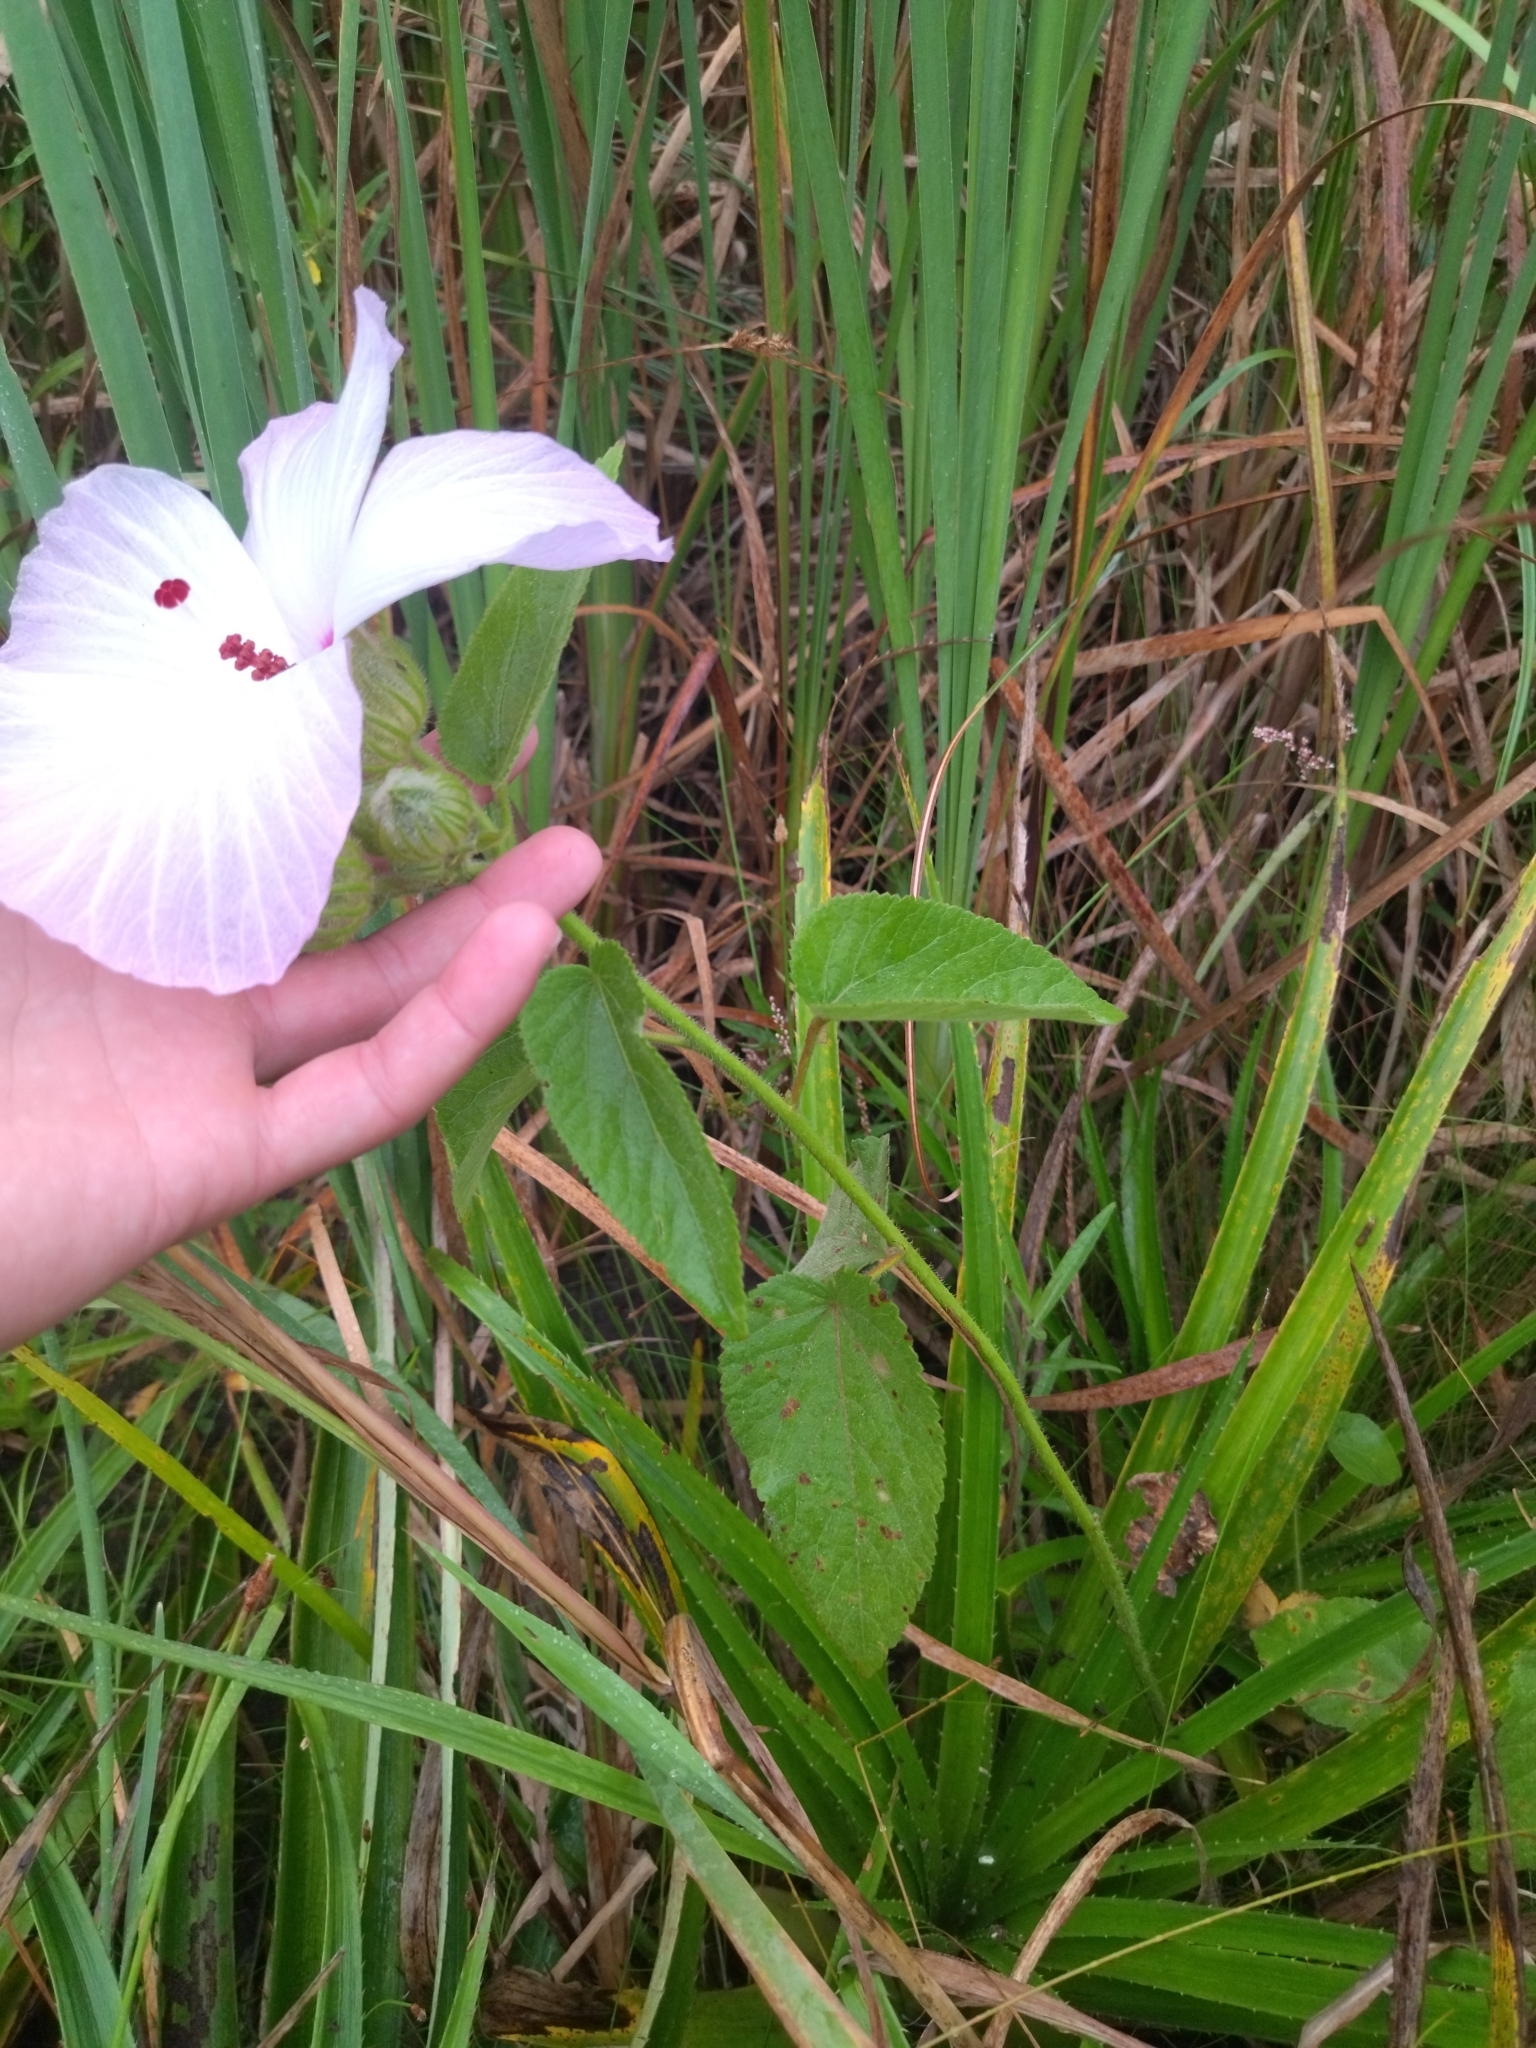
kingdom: Plantae
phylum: Tracheophyta
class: Magnoliopsida
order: Malvales
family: Malvaceae
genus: Hibiscus
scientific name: Hibiscus striatus
